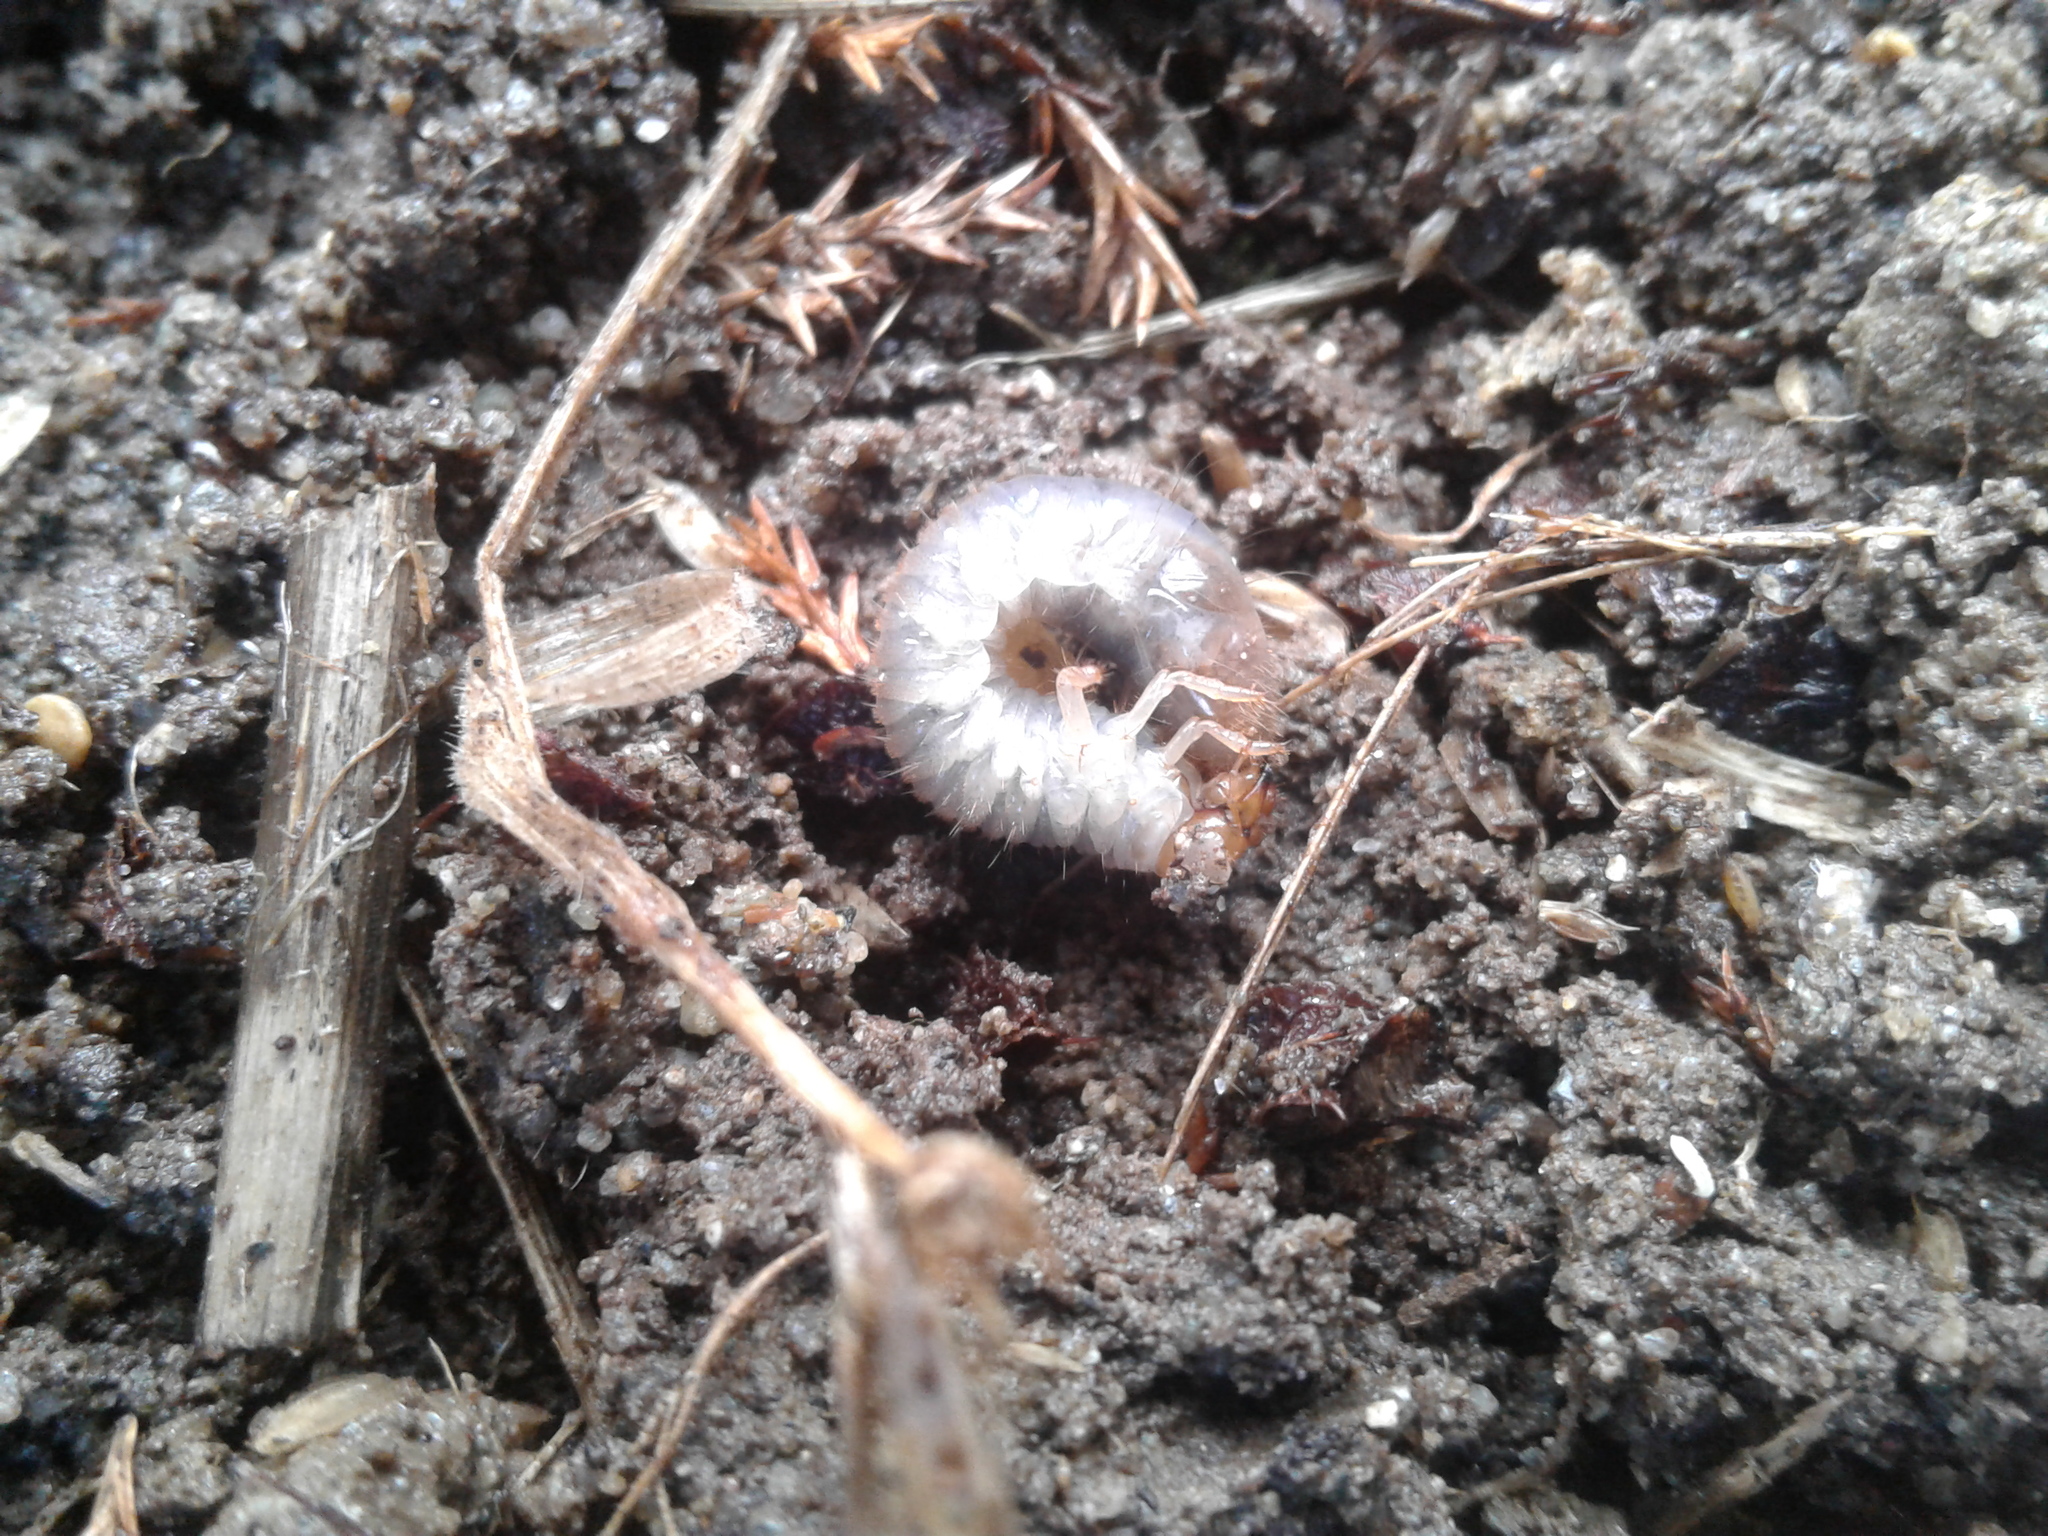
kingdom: Animalia
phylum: Arthropoda
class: Insecta
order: Coleoptera
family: Scarabaeidae
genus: Costelytra
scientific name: Costelytra zealandica
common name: New zealand grass grub
